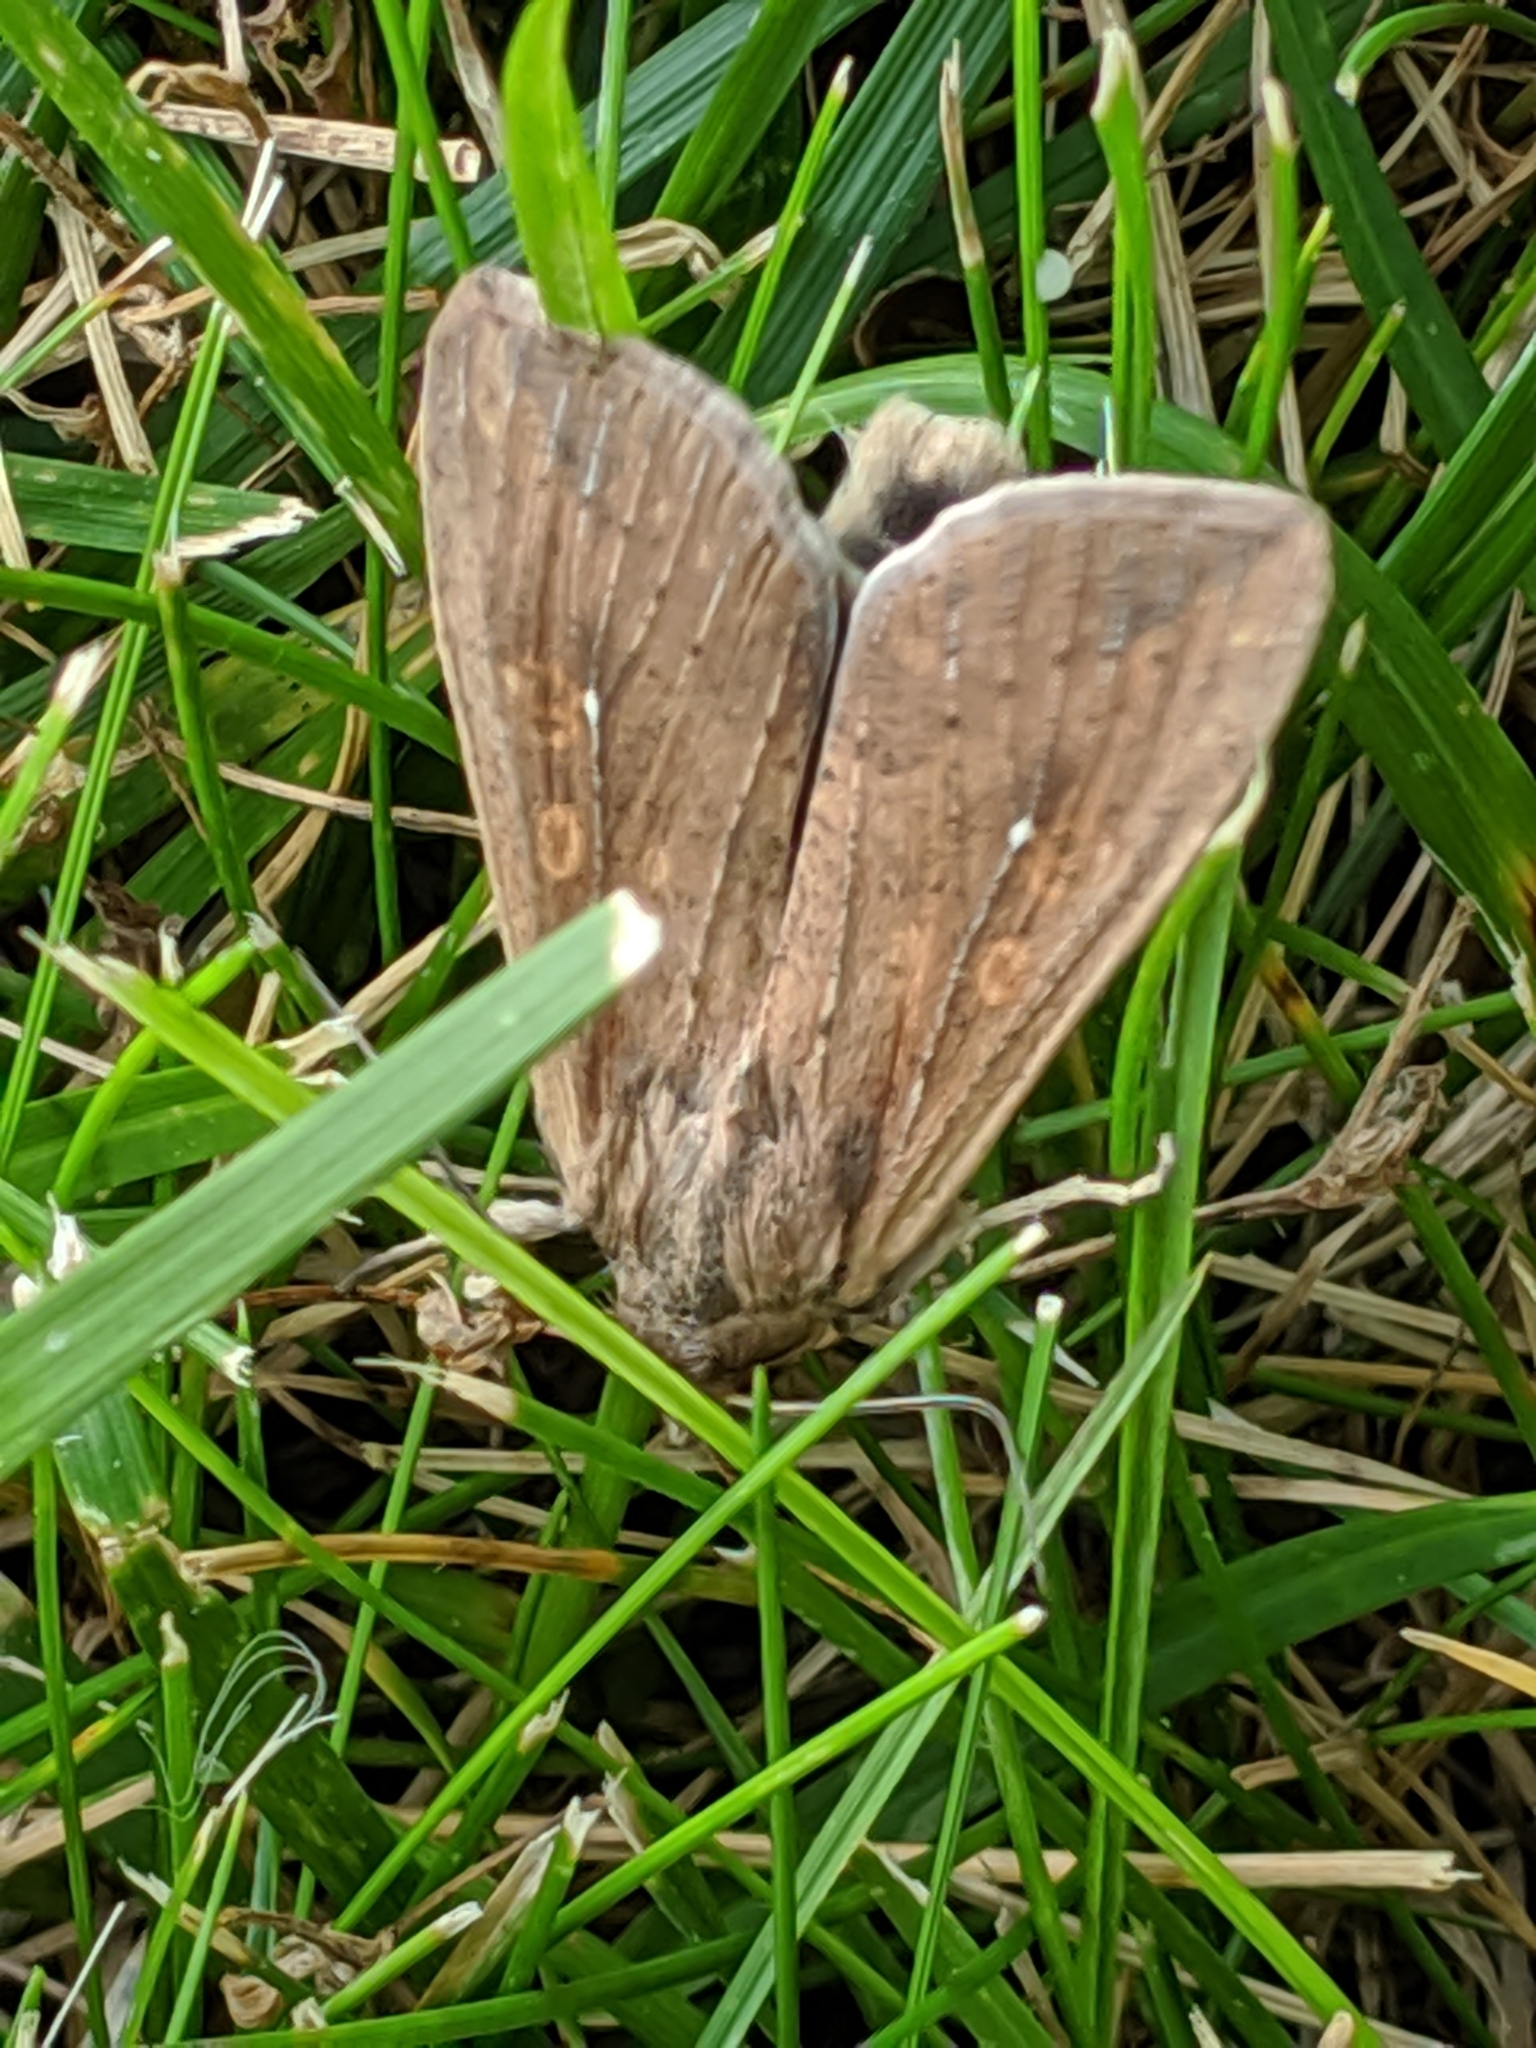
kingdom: Animalia
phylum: Arthropoda
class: Insecta
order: Lepidoptera
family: Noctuidae
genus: Mythimna
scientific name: Mythimna unipuncta
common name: White-speck
